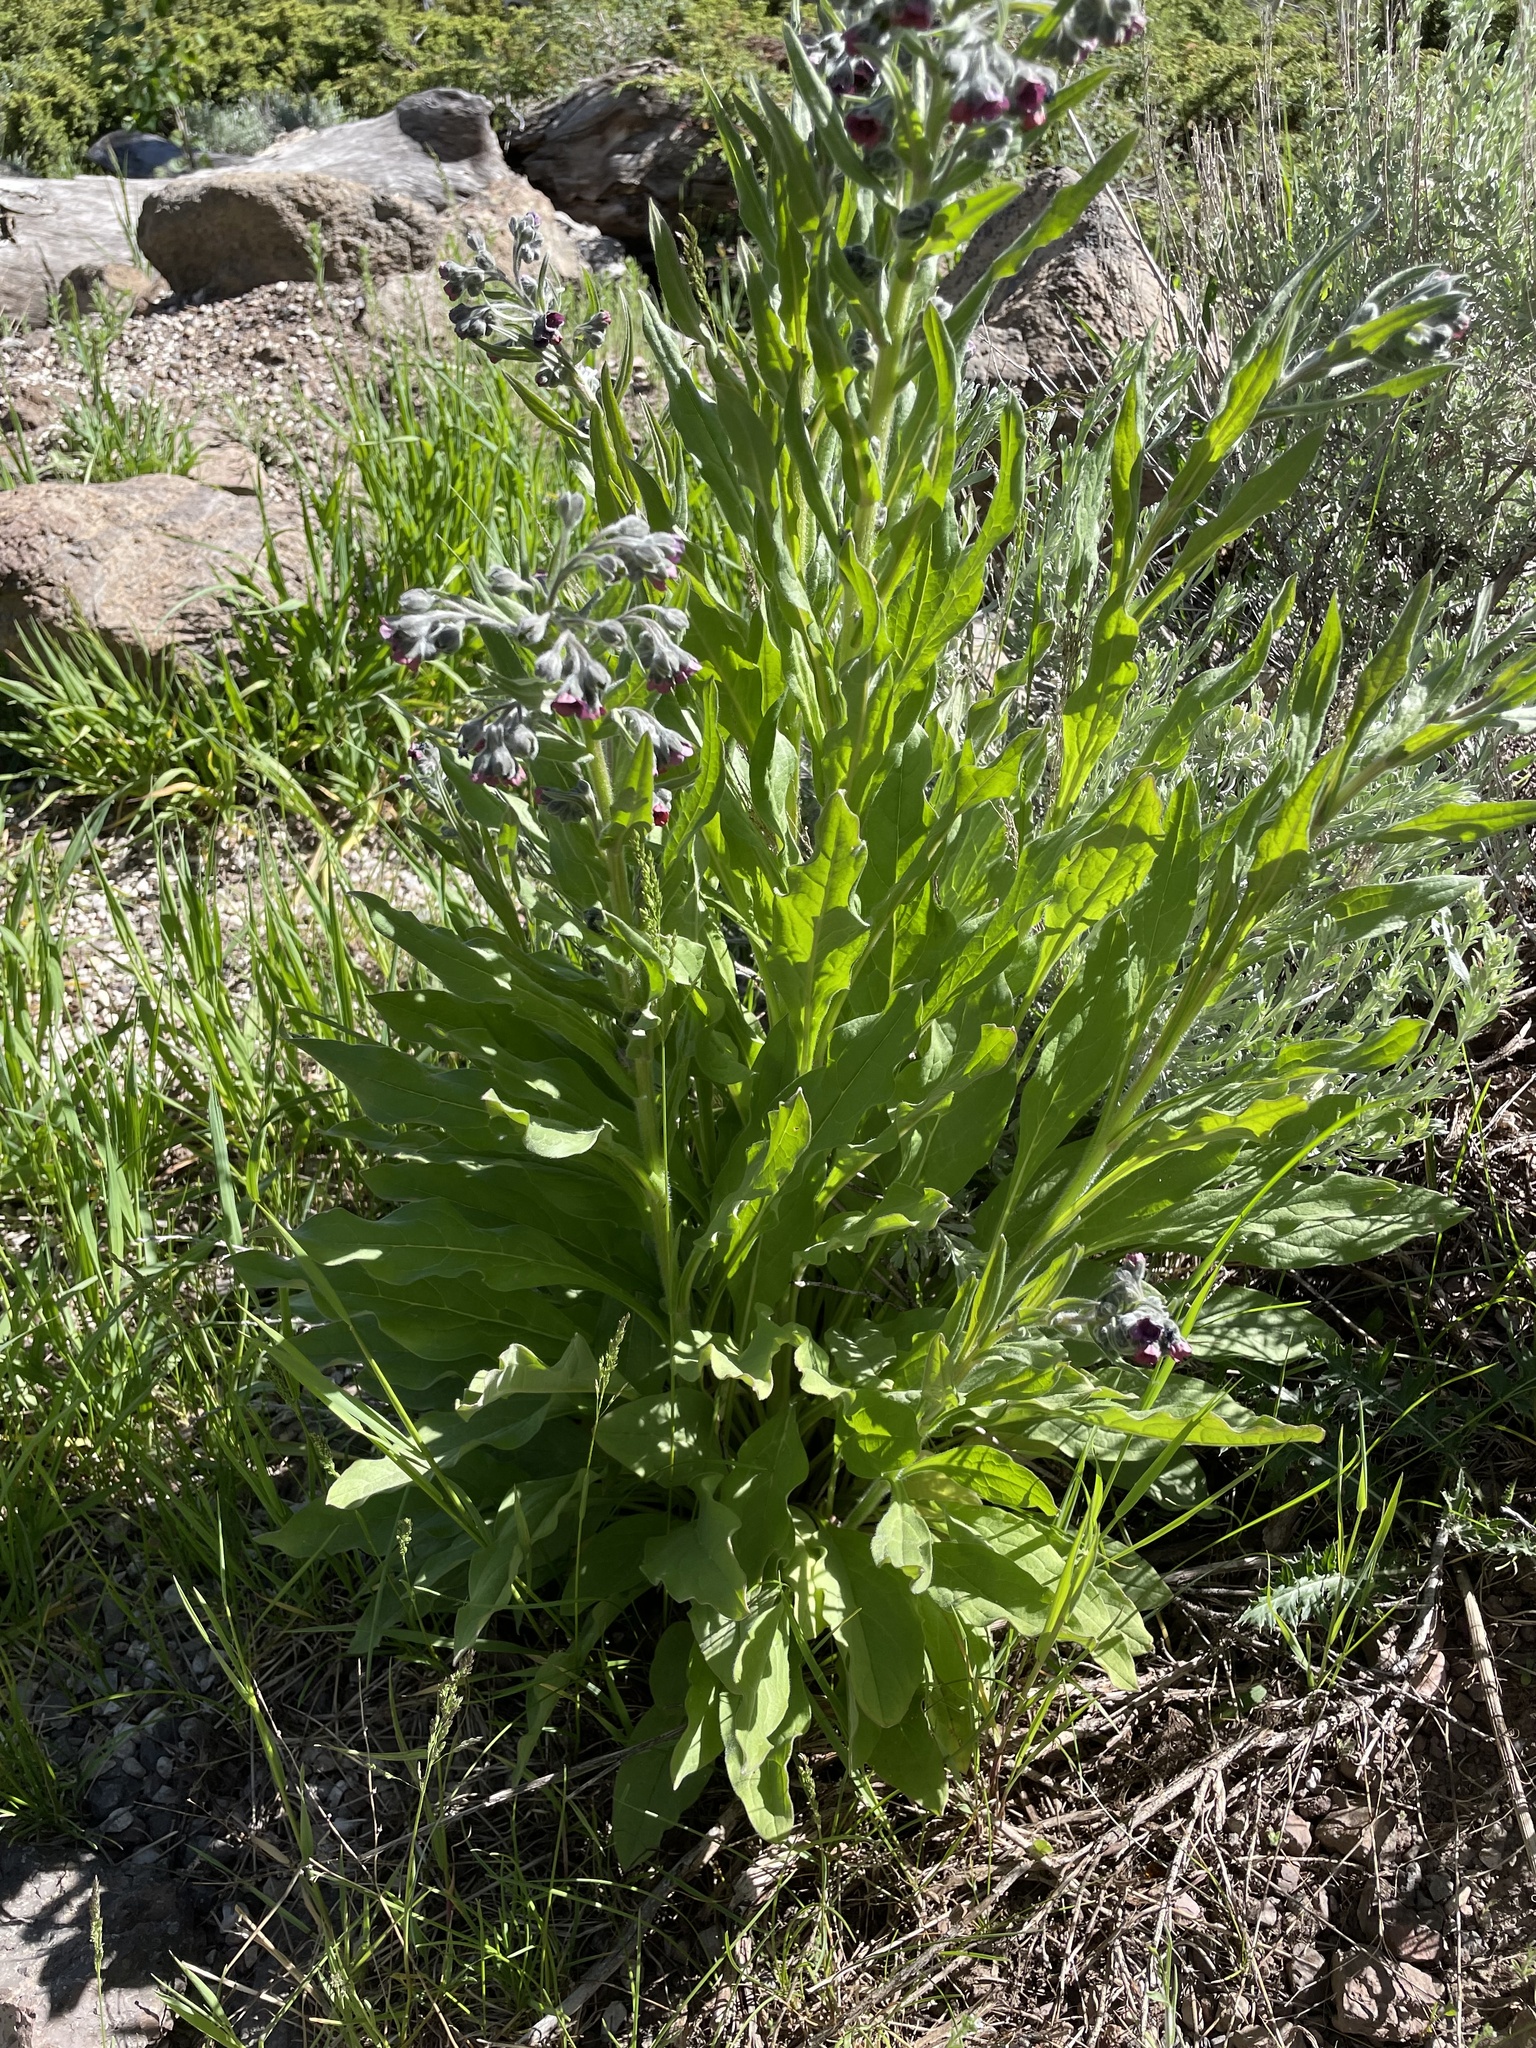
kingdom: Plantae
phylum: Tracheophyta
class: Magnoliopsida
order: Boraginales
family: Boraginaceae
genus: Cynoglossum
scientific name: Cynoglossum officinale
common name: Hound's-tongue
